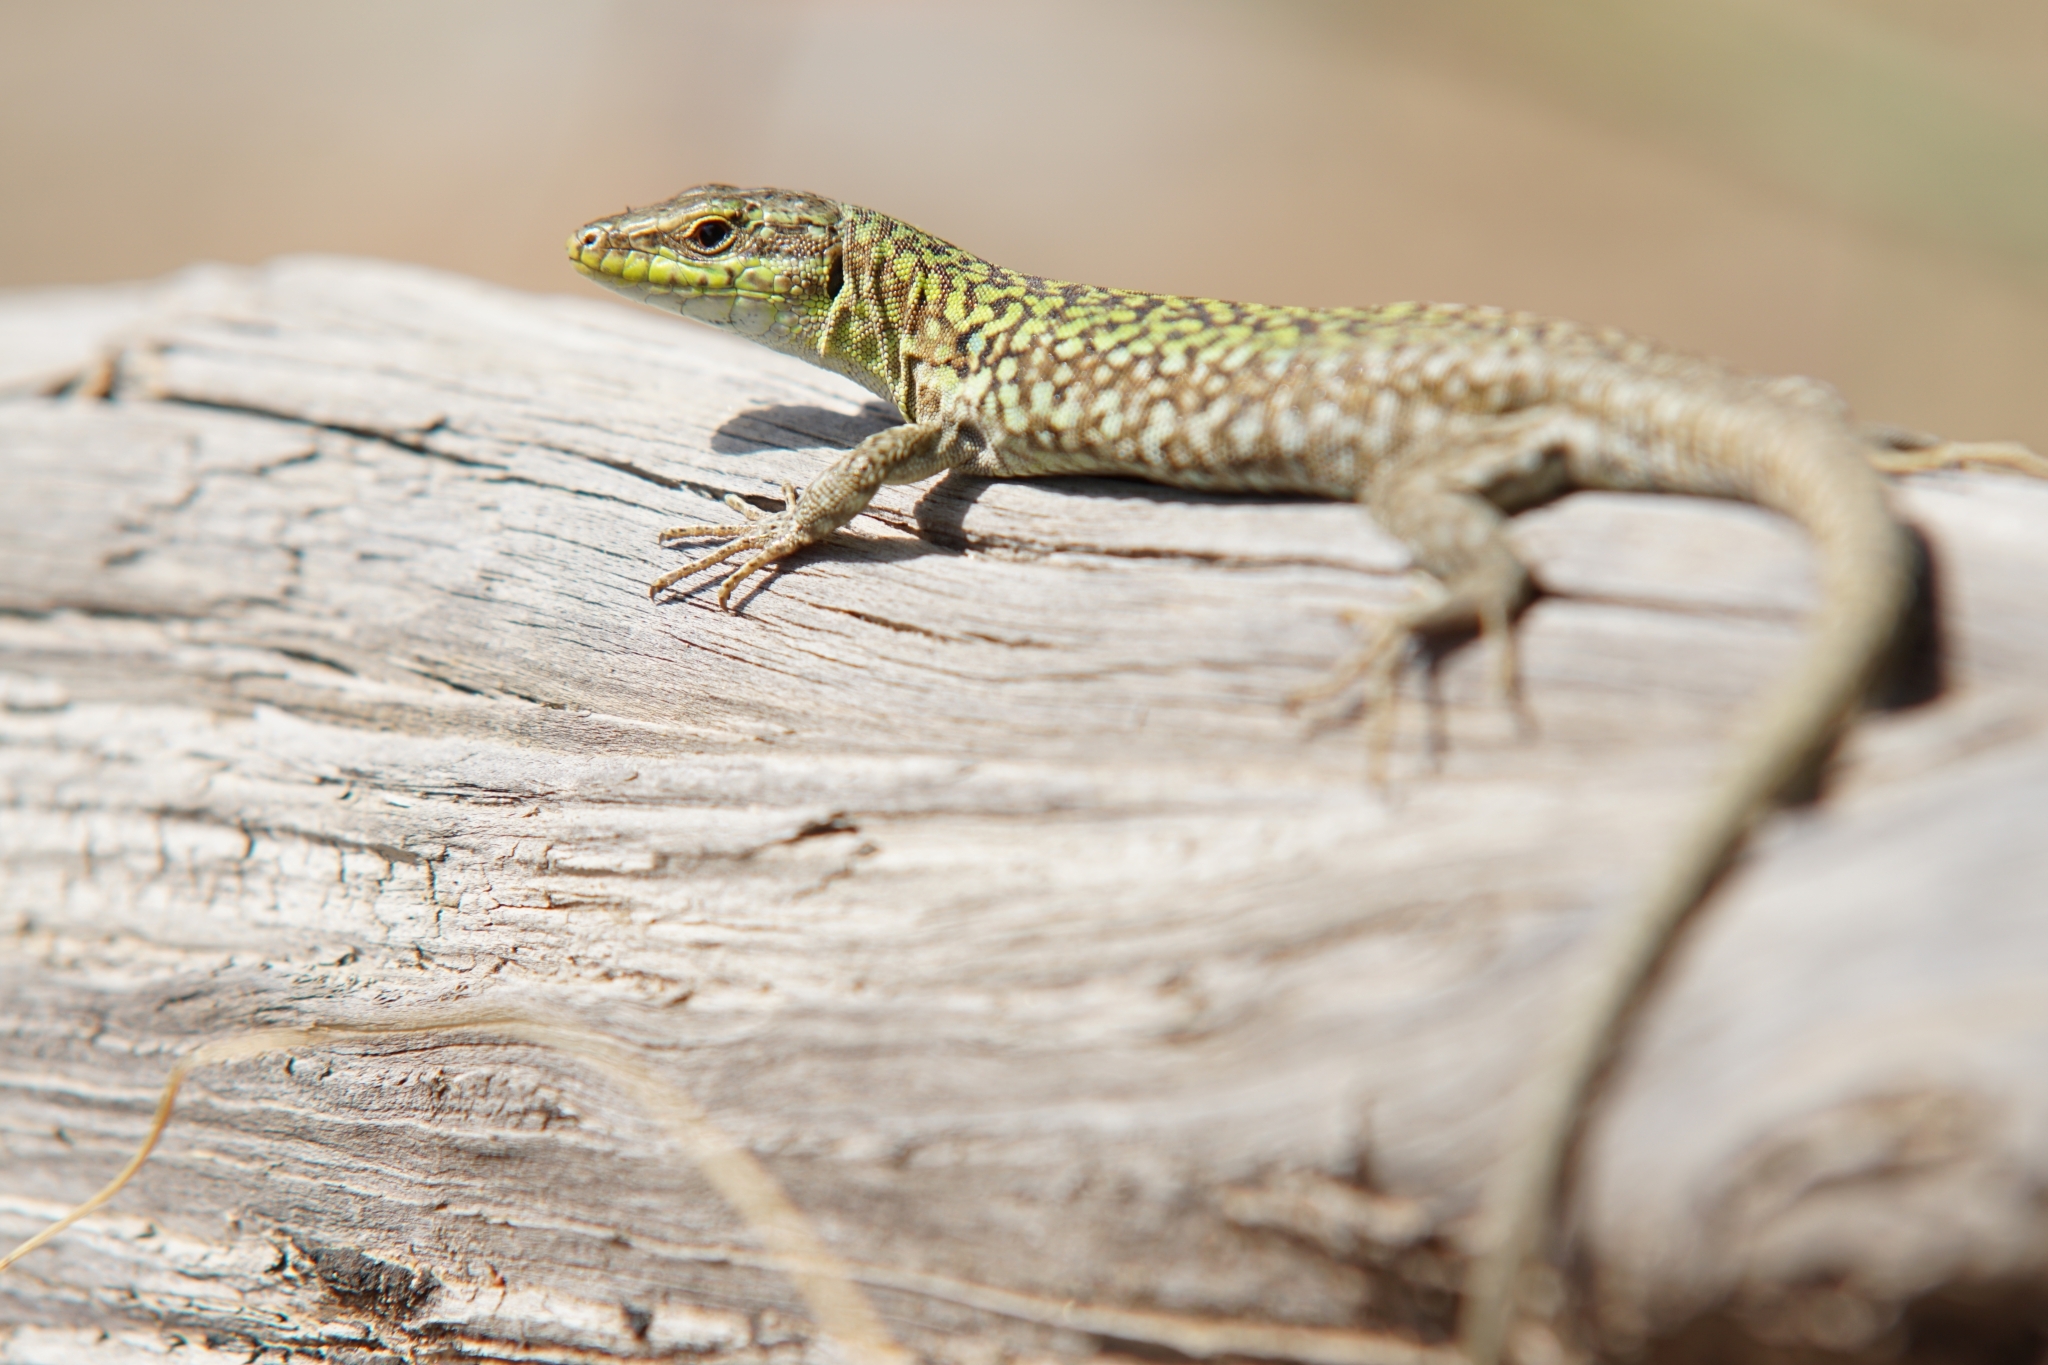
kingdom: Animalia
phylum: Chordata
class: Squamata
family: Lacertidae
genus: Podarcis
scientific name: Podarcis siculus
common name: Italian wall lizard
